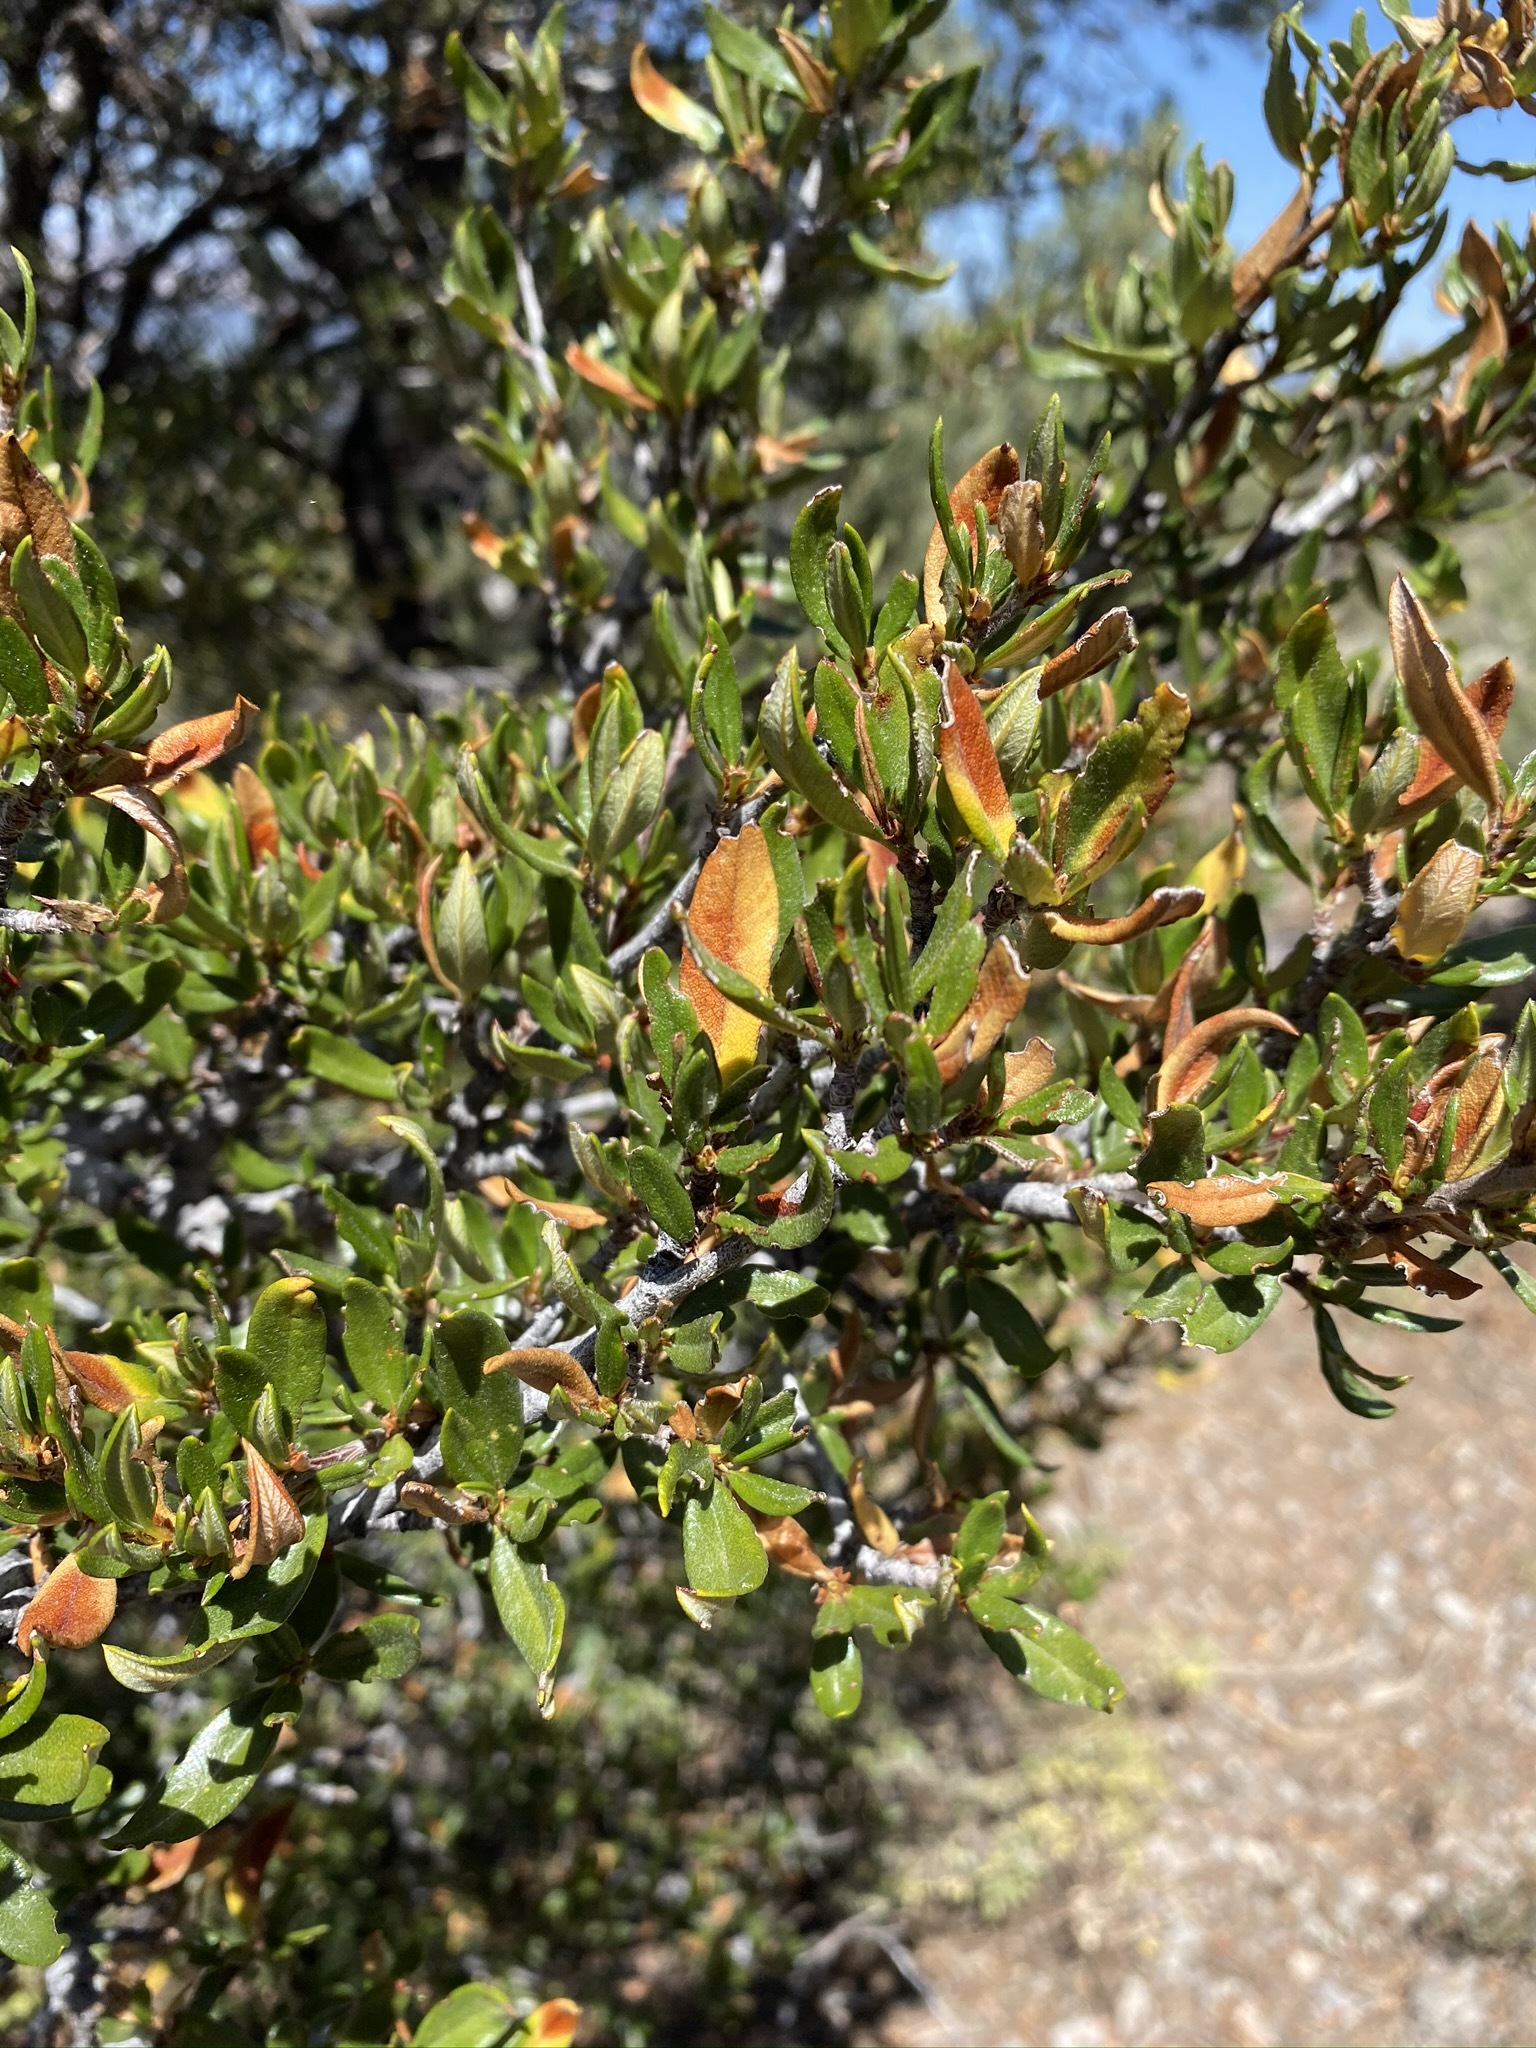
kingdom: Plantae
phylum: Tracheophyta
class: Magnoliopsida
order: Rosales
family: Rosaceae
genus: Cercocarpus
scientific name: Cercocarpus ledifolius
